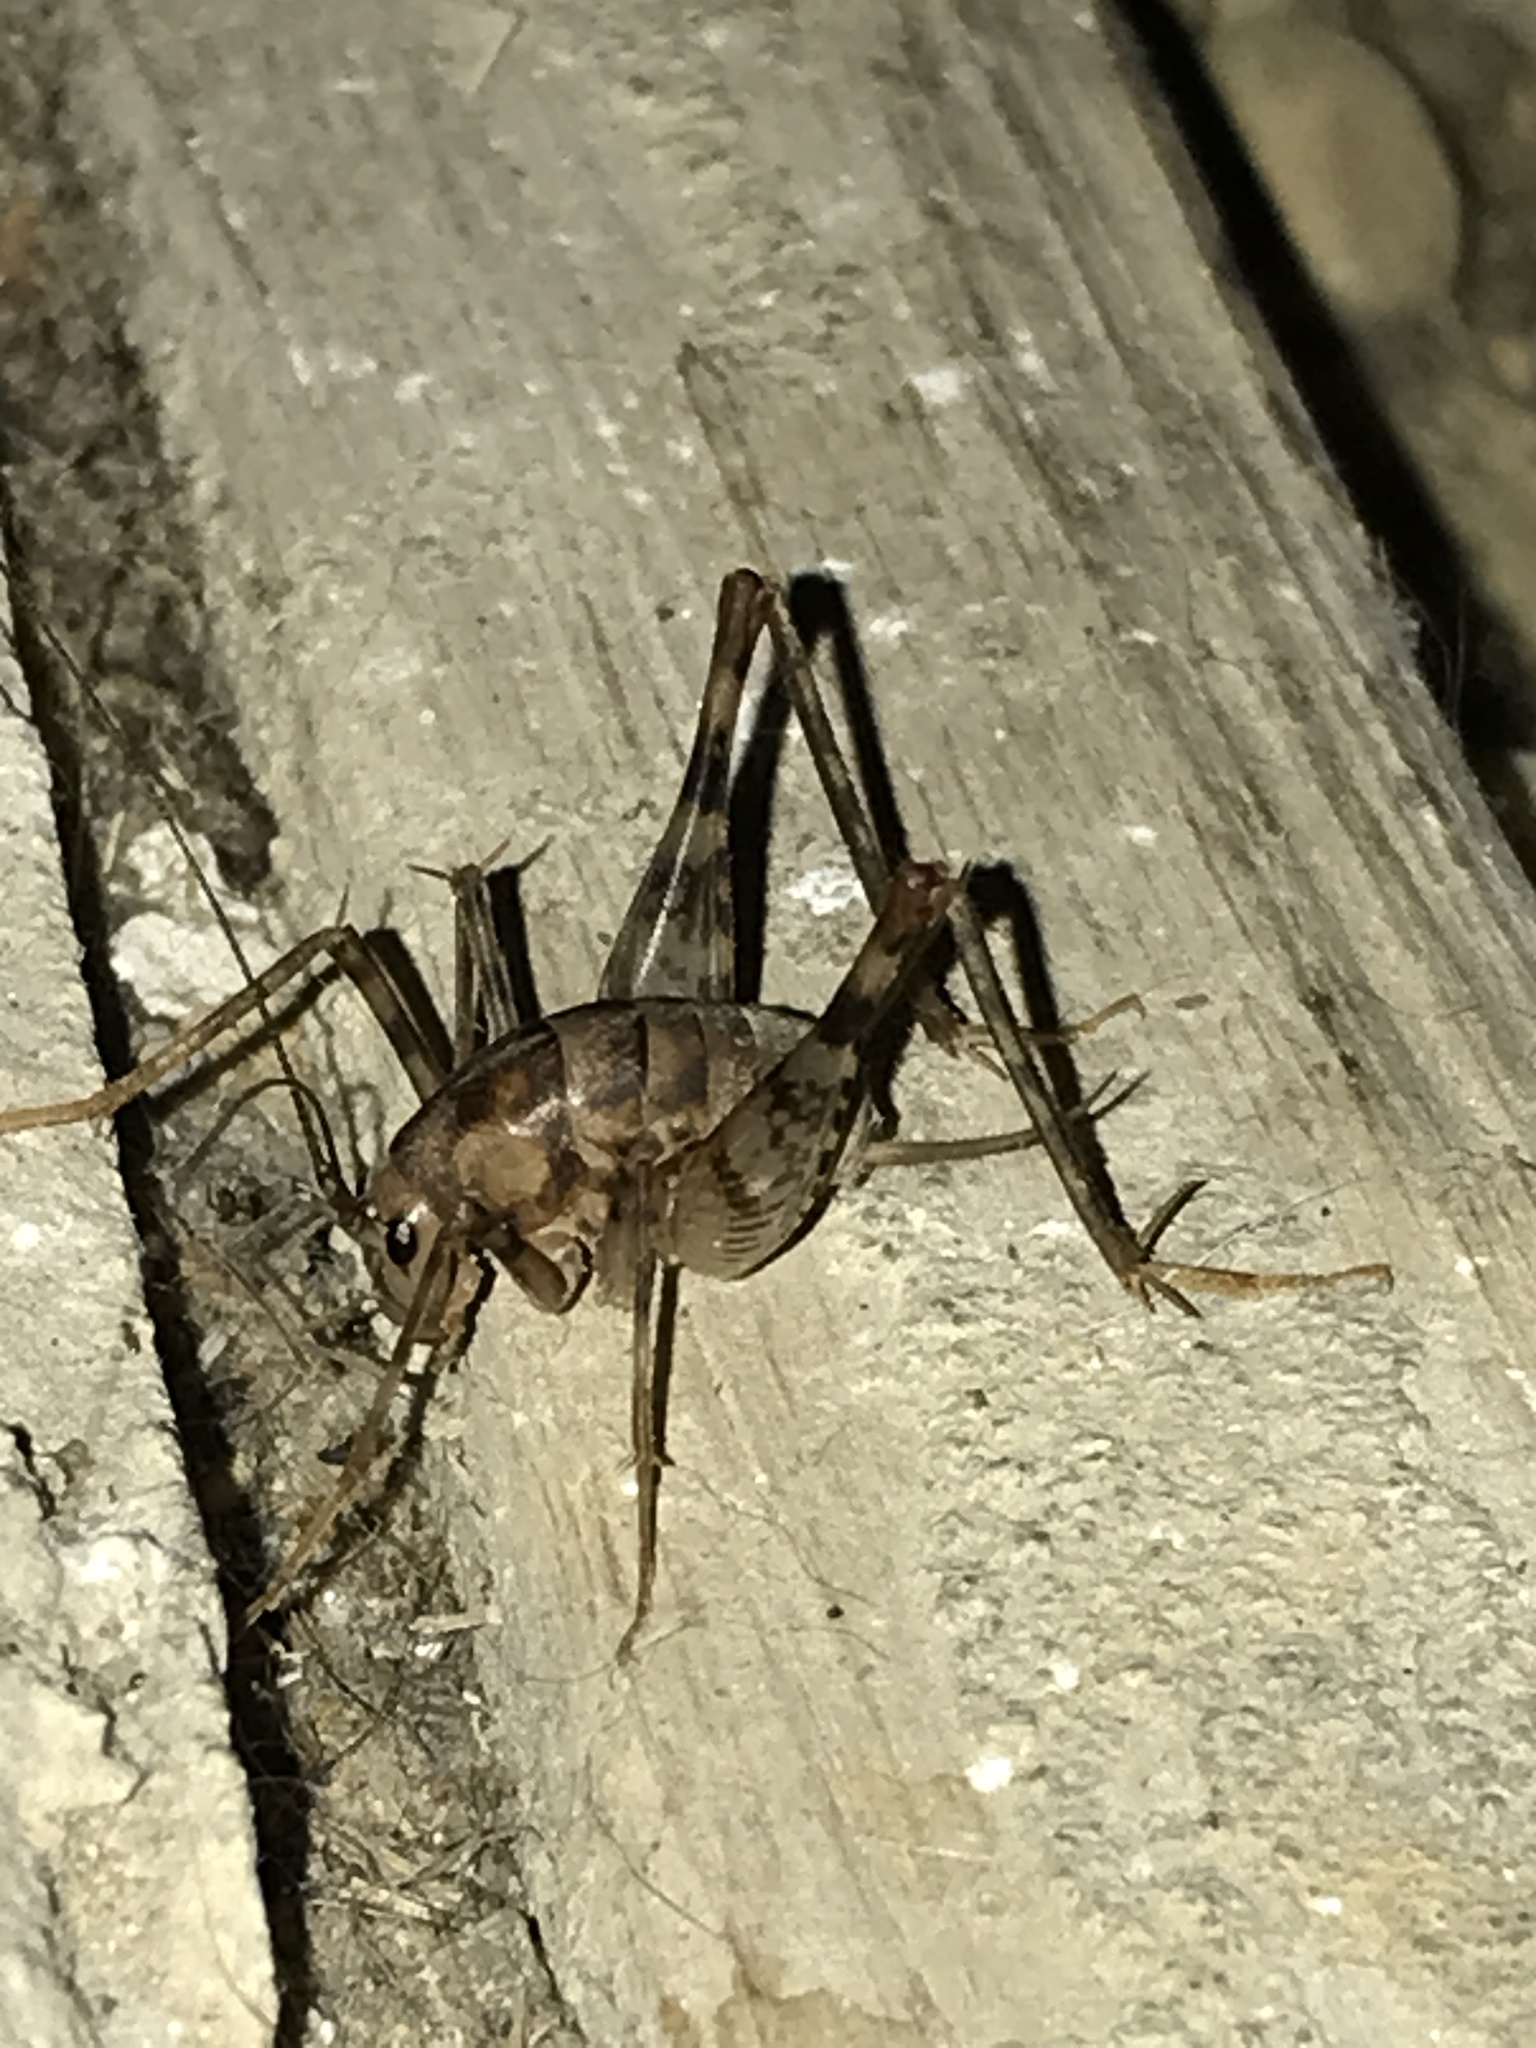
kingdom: Animalia
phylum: Arthropoda
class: Insecta
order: Orthoptera
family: Rhaphidophoridae
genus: Tachycines
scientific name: Tachycines asynamorus
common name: Greenhouse camel cricket
